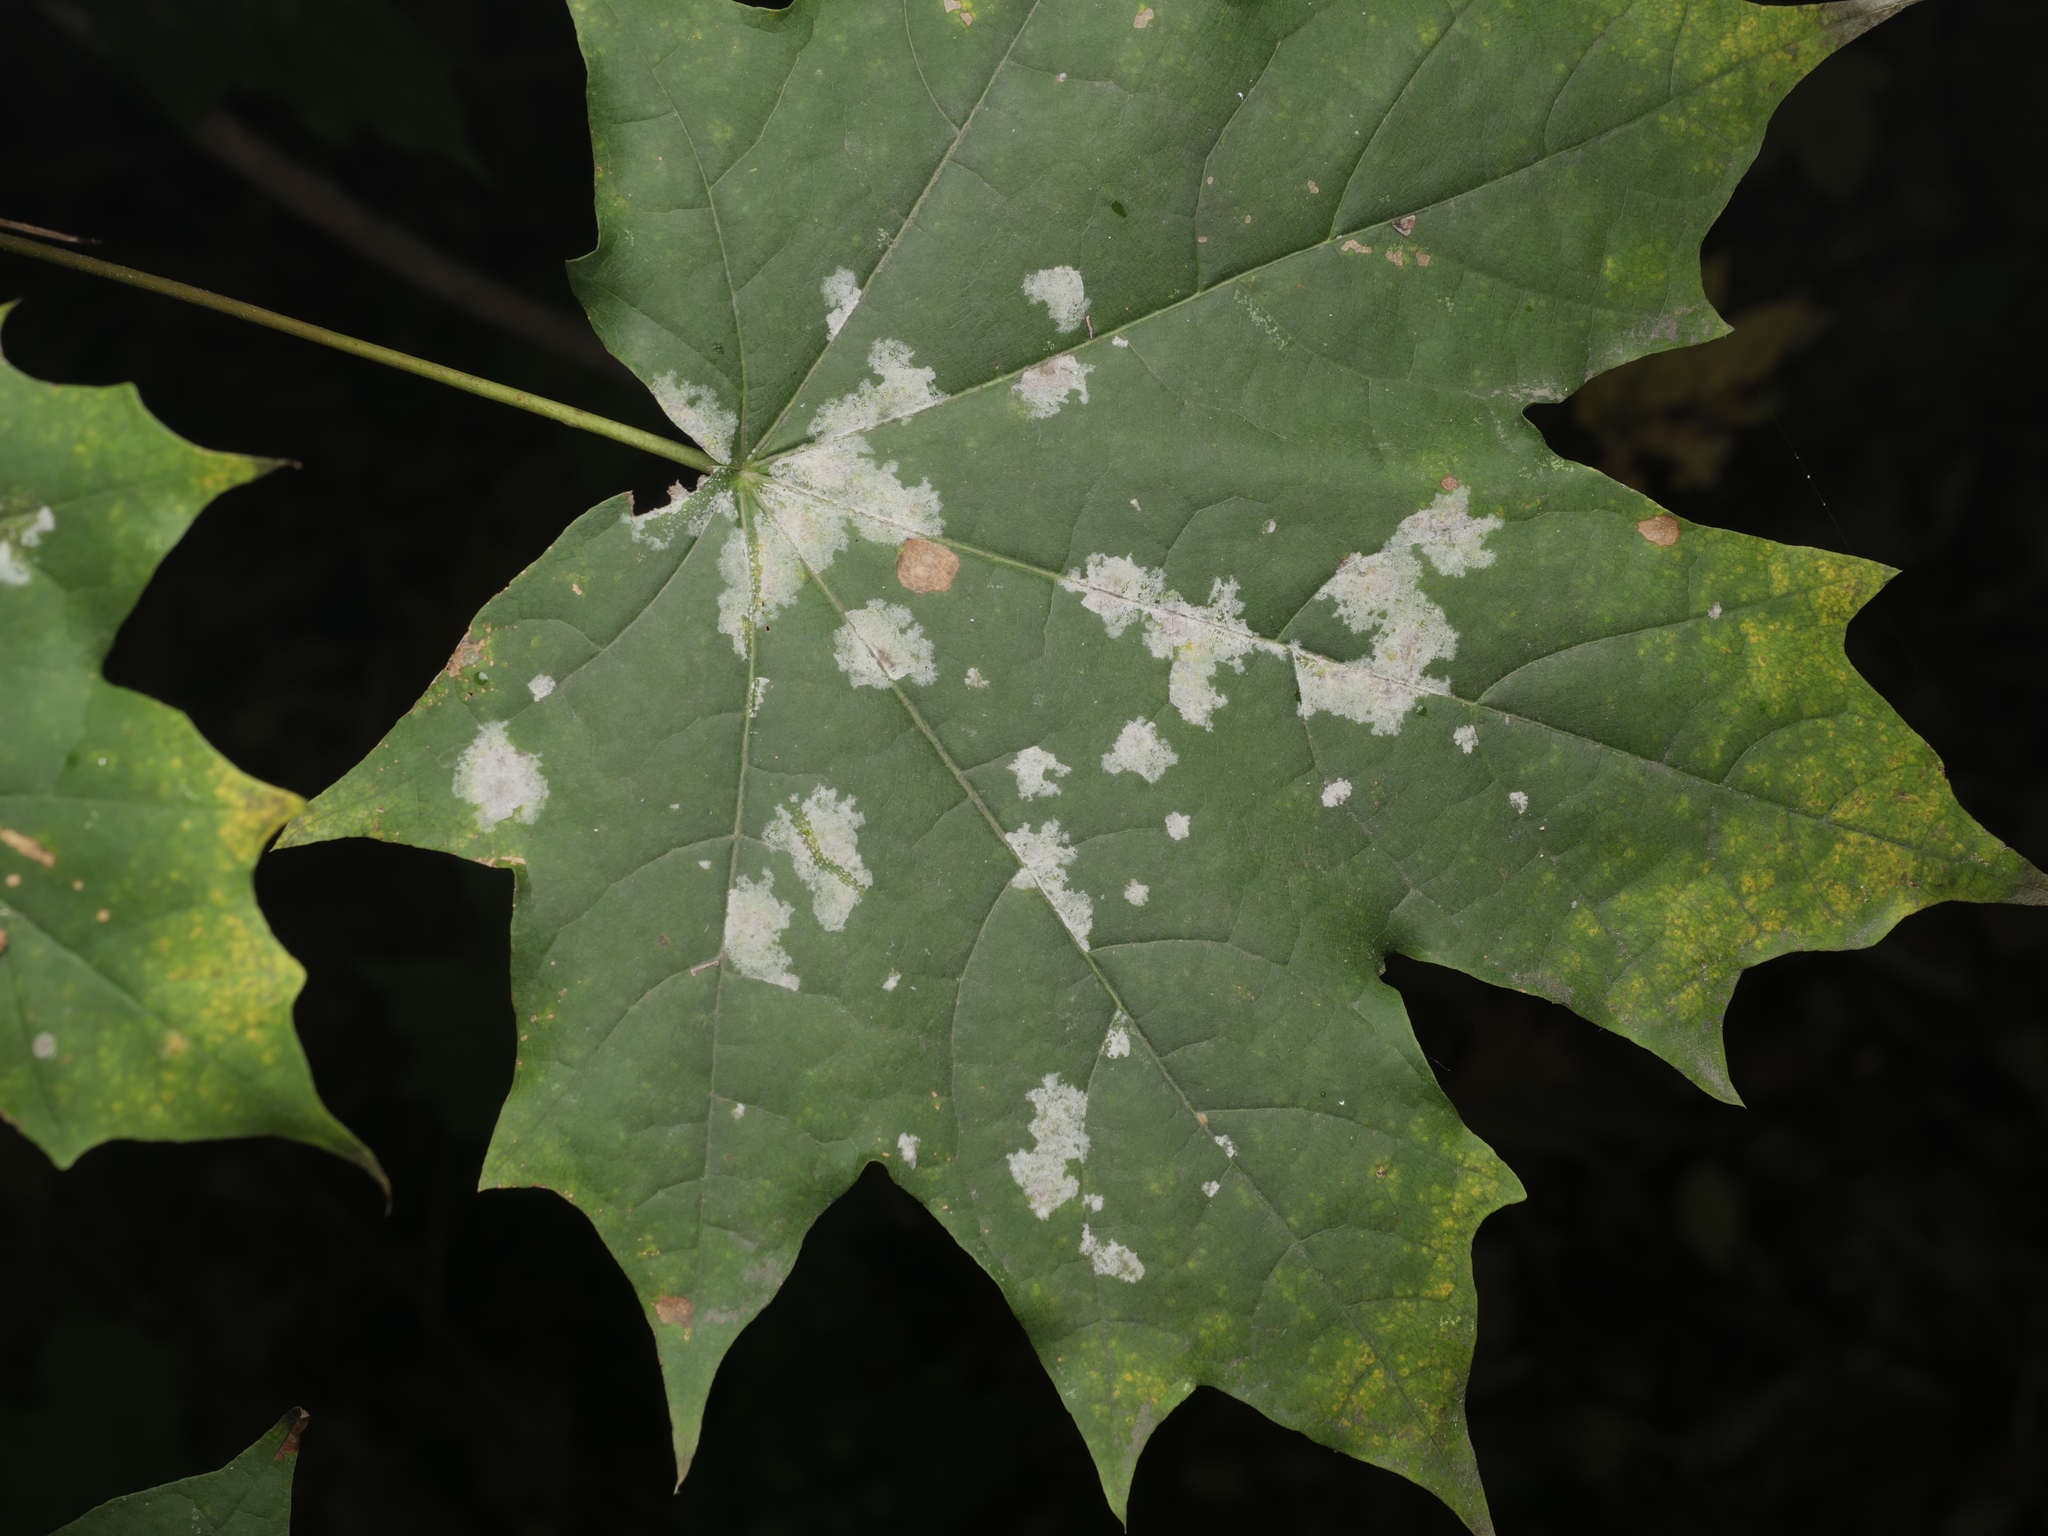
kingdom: Fungi
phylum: Ascomycota
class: Leotiomycetes
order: Helotiales
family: Erysiphaceae
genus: Sawadaea
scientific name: Sawadaea tulasnei
